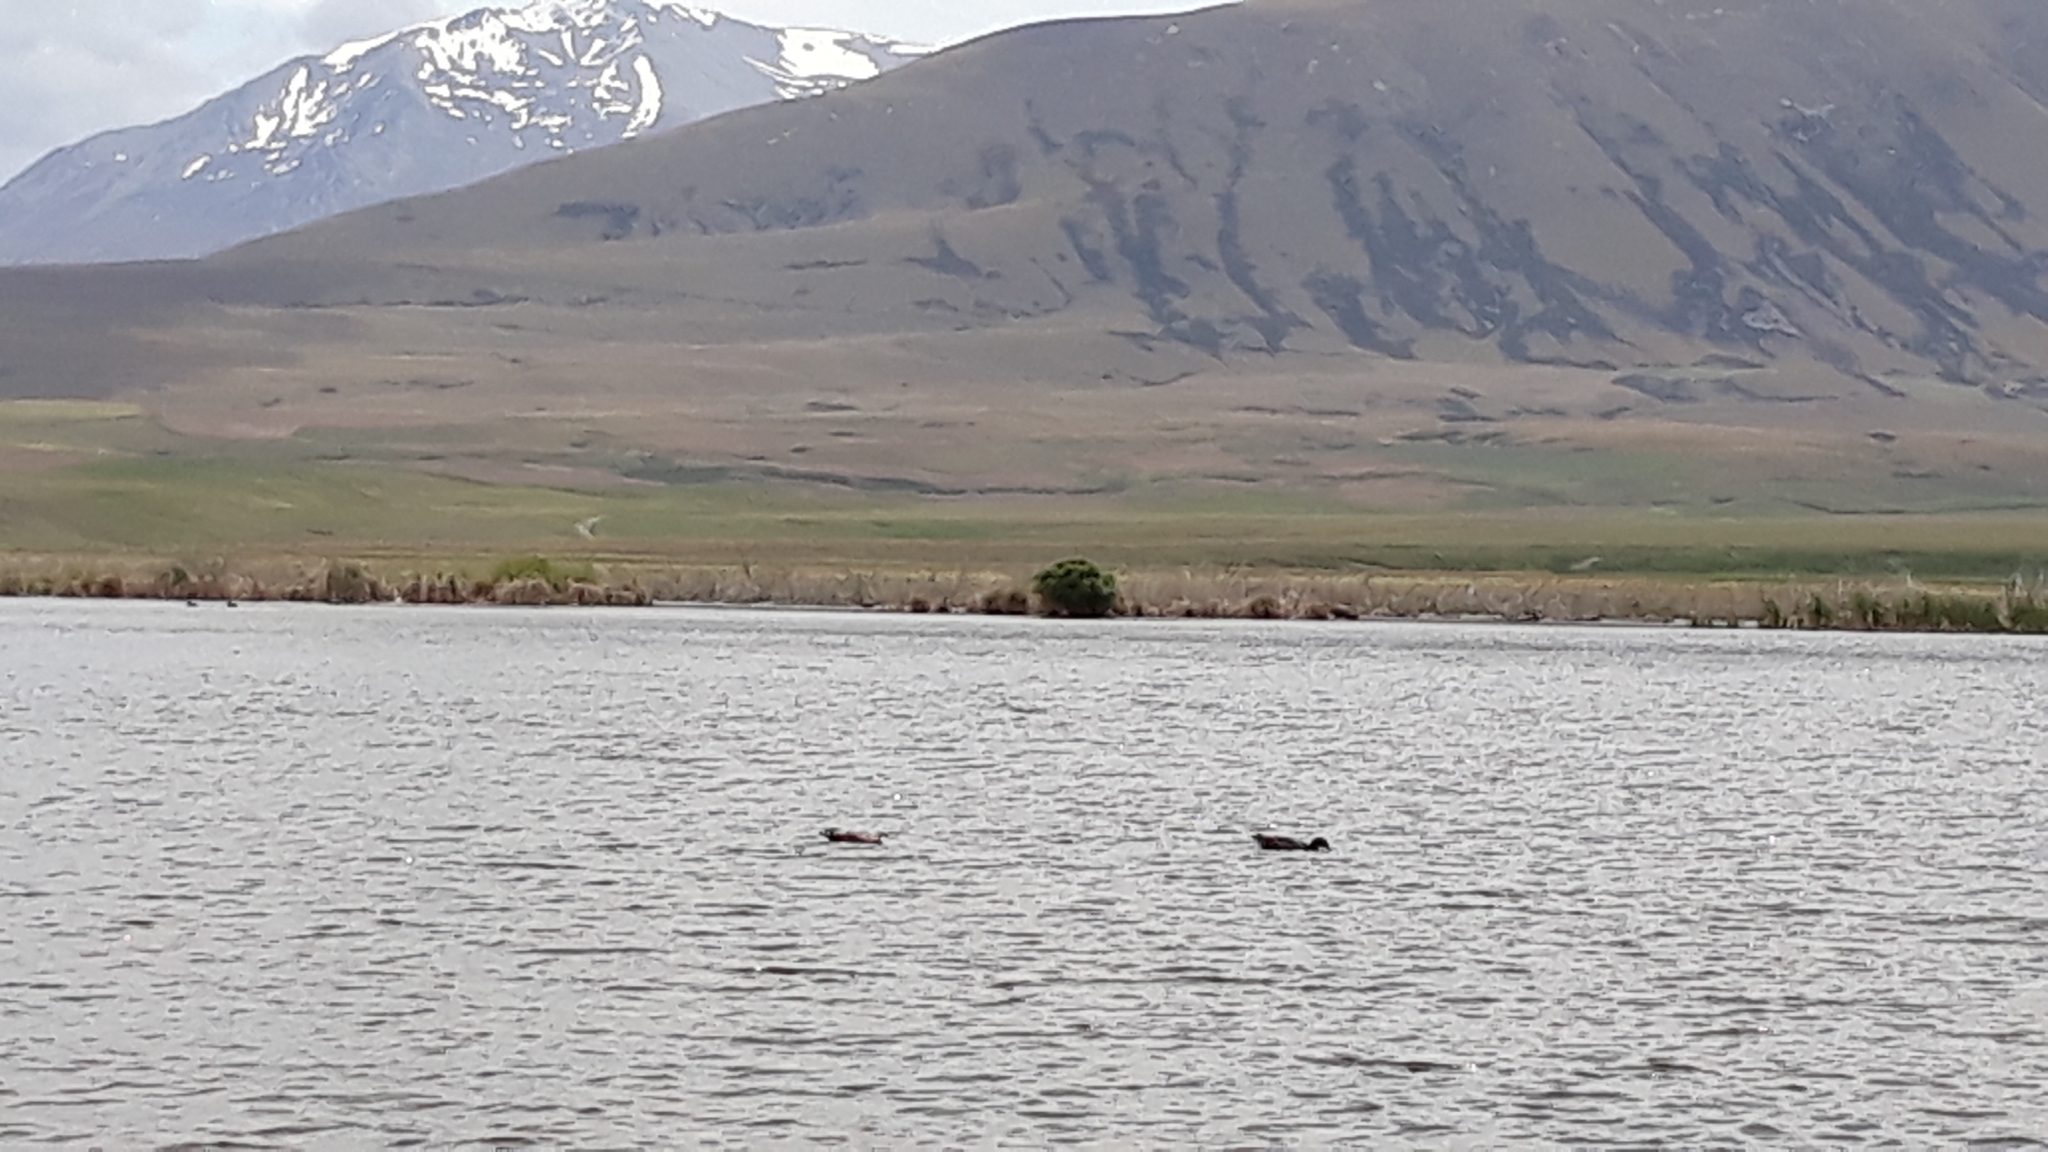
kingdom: Animalia
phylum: Chordata
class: Aves
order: Anseriformes
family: Anatidae
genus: Tadorna
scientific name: Tadorna variegata
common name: Paradise shelduck
